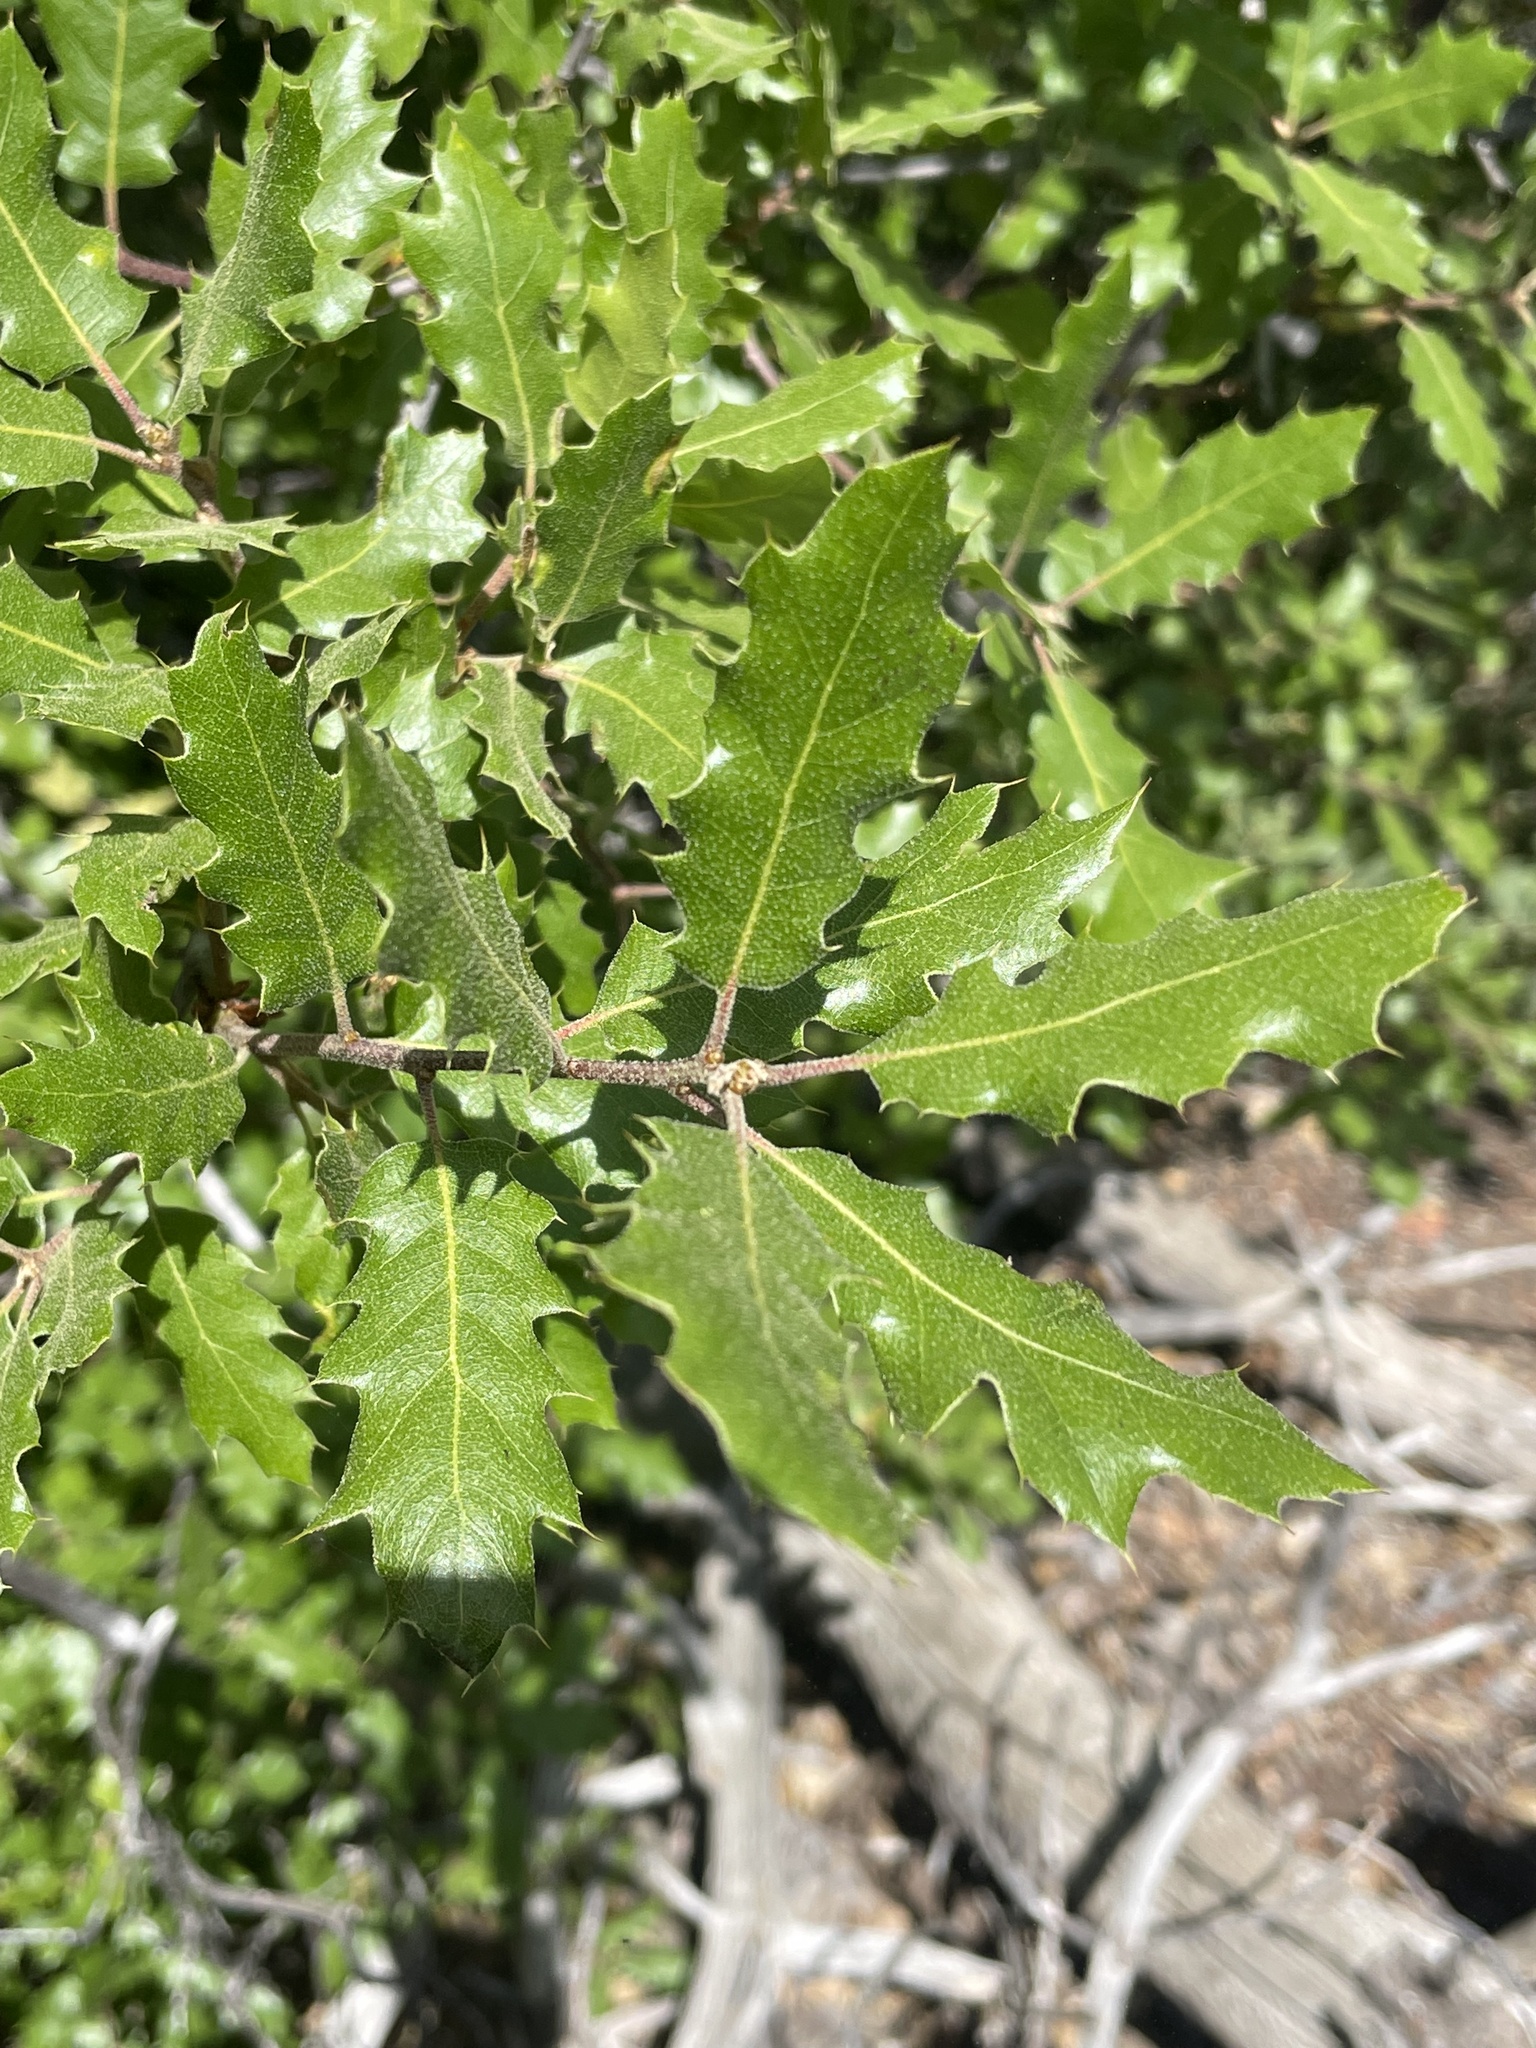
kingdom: Plantae
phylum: Tracheophyta
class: Magnoliopsida
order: Fagales
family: Fagaceae
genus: Quercus
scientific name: Quercus berberidifolia
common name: California scrub oak
